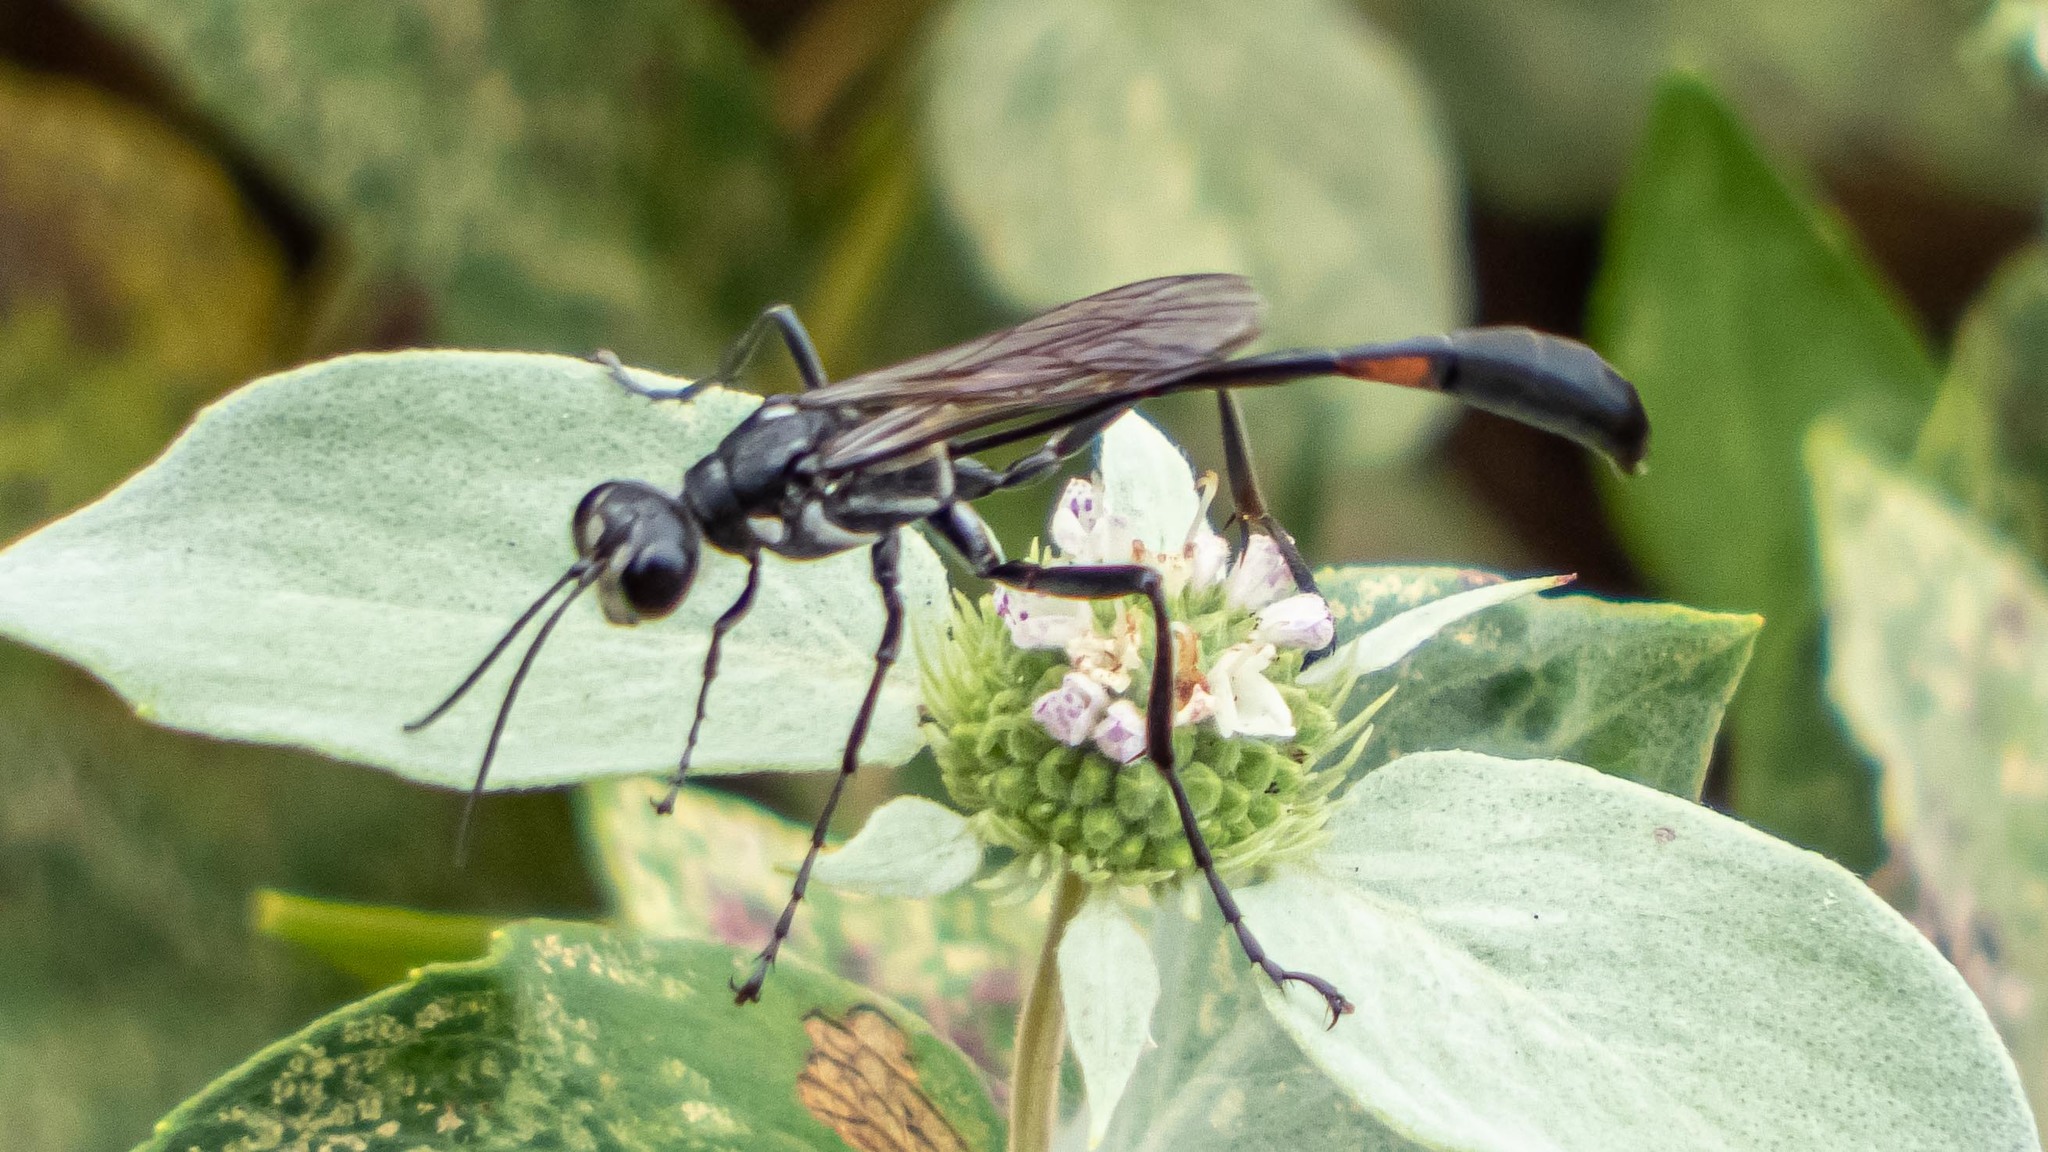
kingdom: Animalia
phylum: Arthropoda
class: Insecta
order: Hymenoptera
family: Sphecidae
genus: Ammophila
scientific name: Ammophila procera
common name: Common thread-waisted wasp
